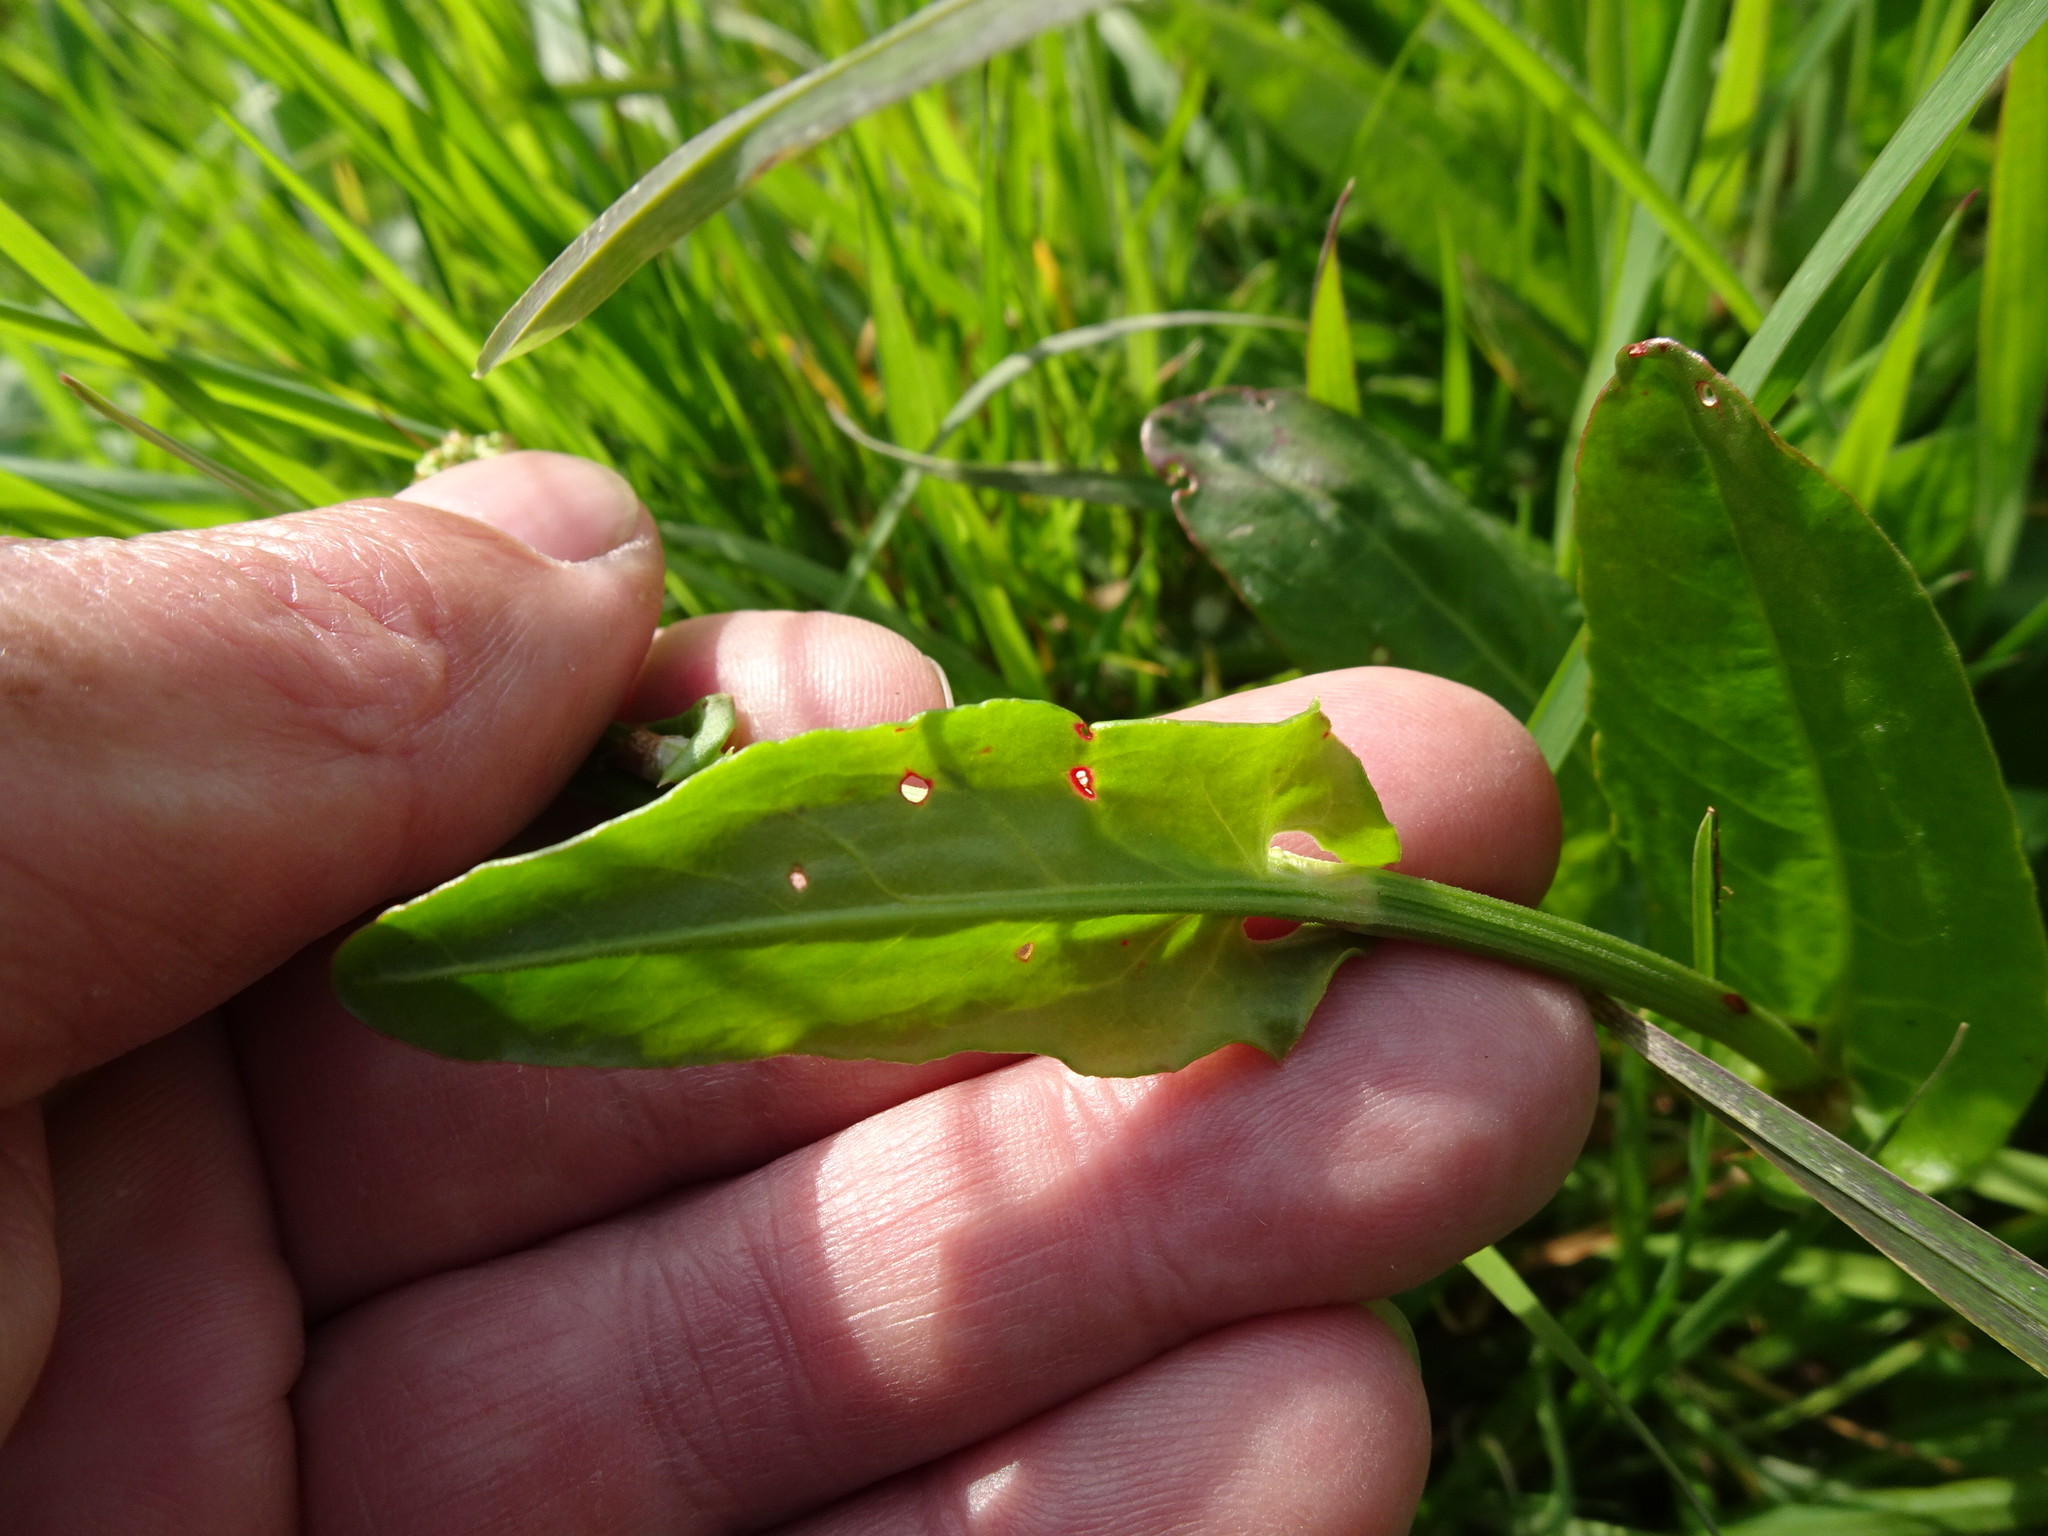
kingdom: Plantae
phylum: Tracheophyta
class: Magnoliopsida
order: Caryophyllales
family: Polygonaceae
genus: Rumex
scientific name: Rumex acetosa
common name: Garden sorrel
